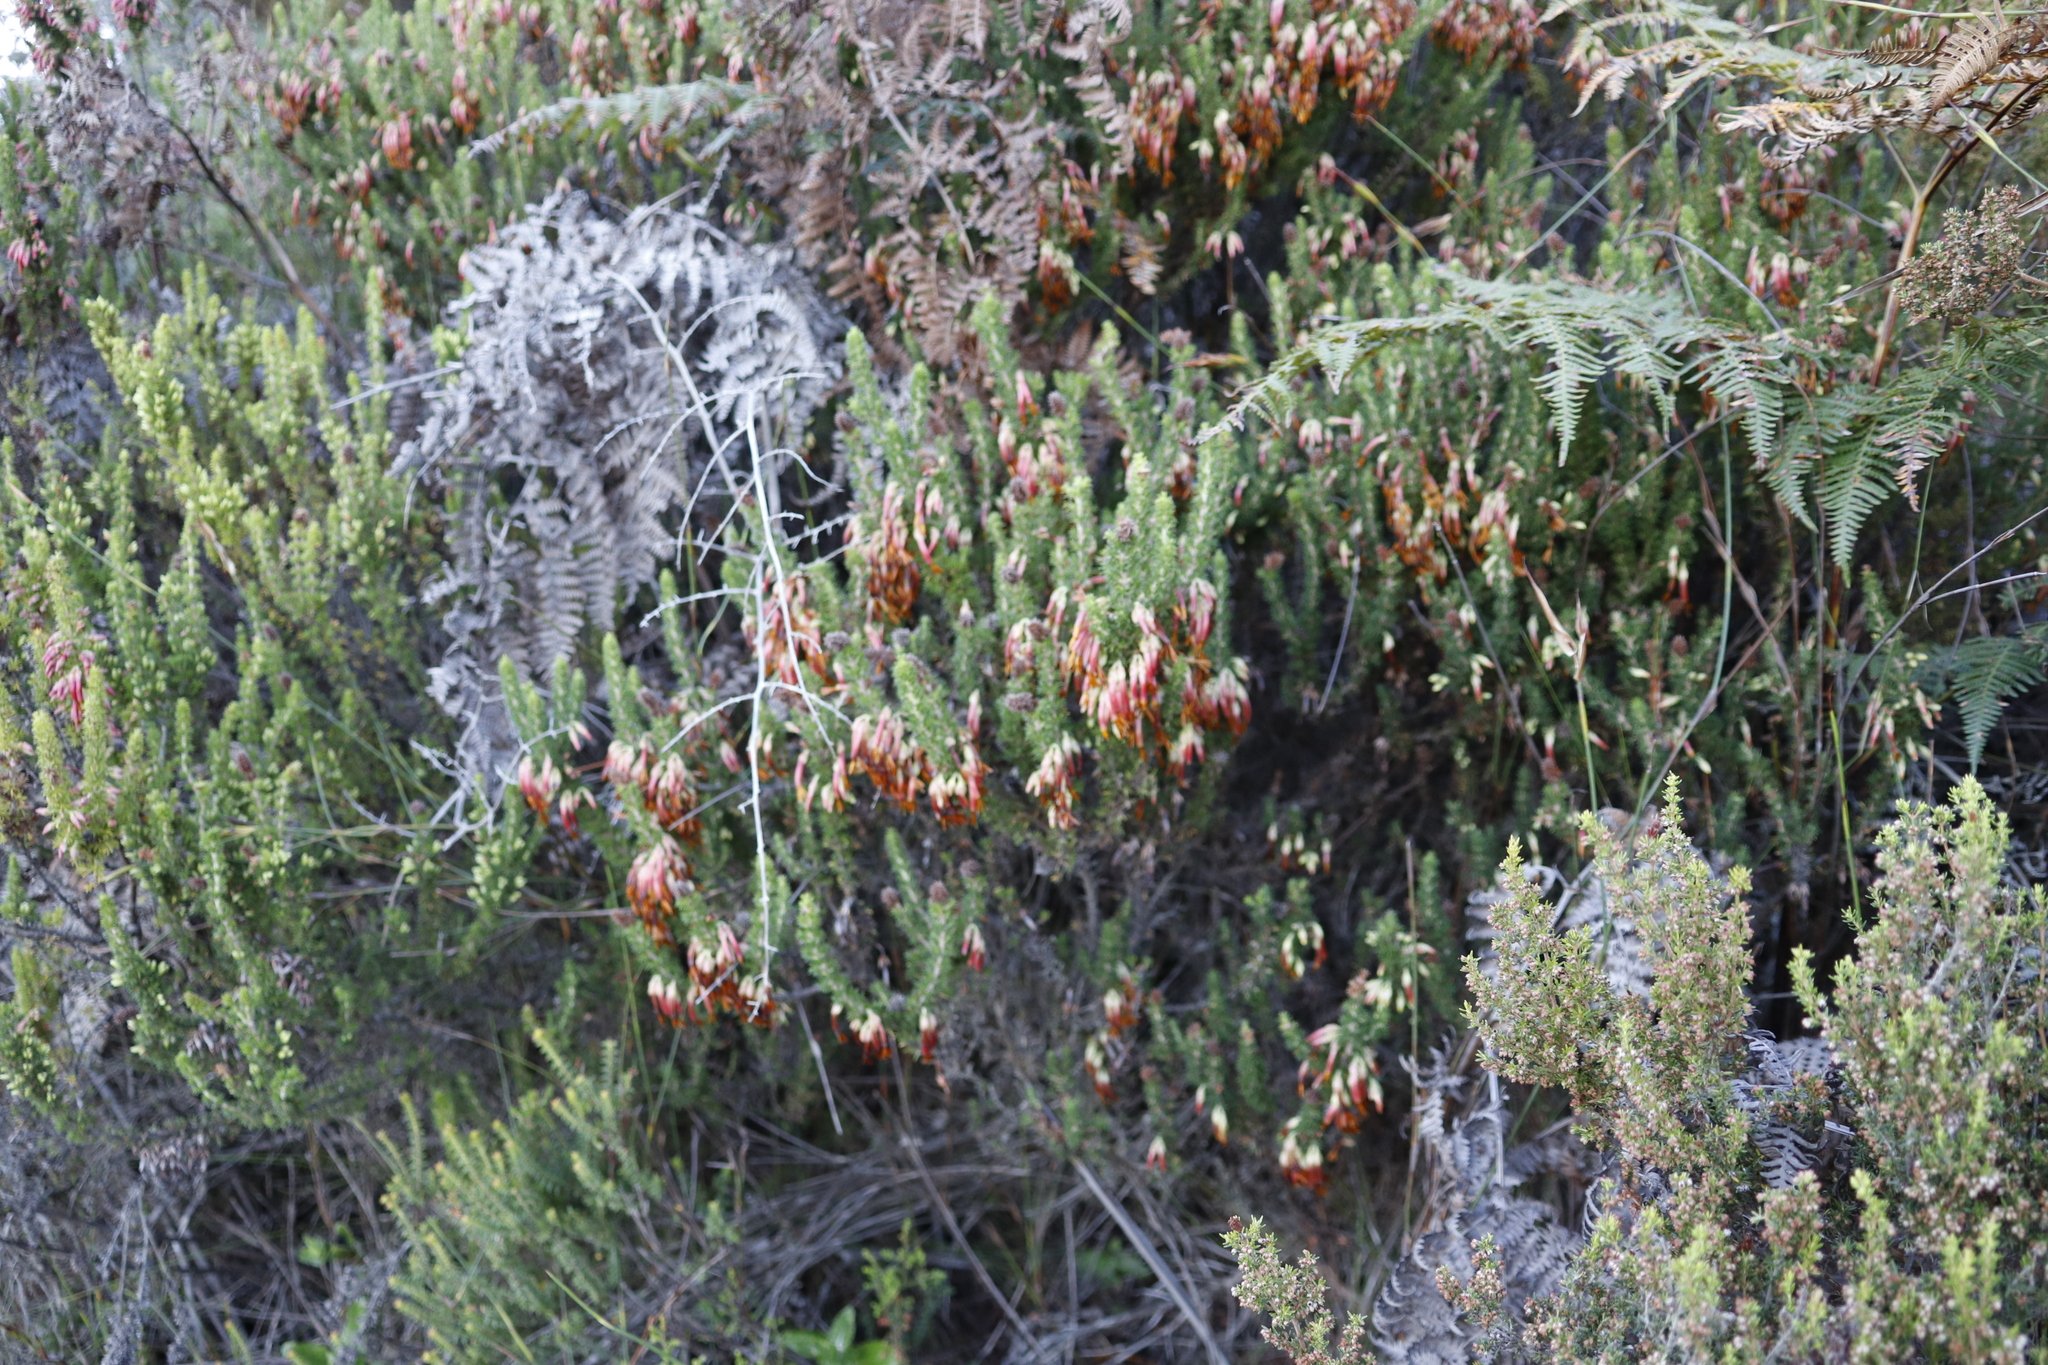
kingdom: Plantae
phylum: Tracheophyta
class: Magnoliopsida
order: Ericales
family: Ericaceae
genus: Erica
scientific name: Erica coccinea
